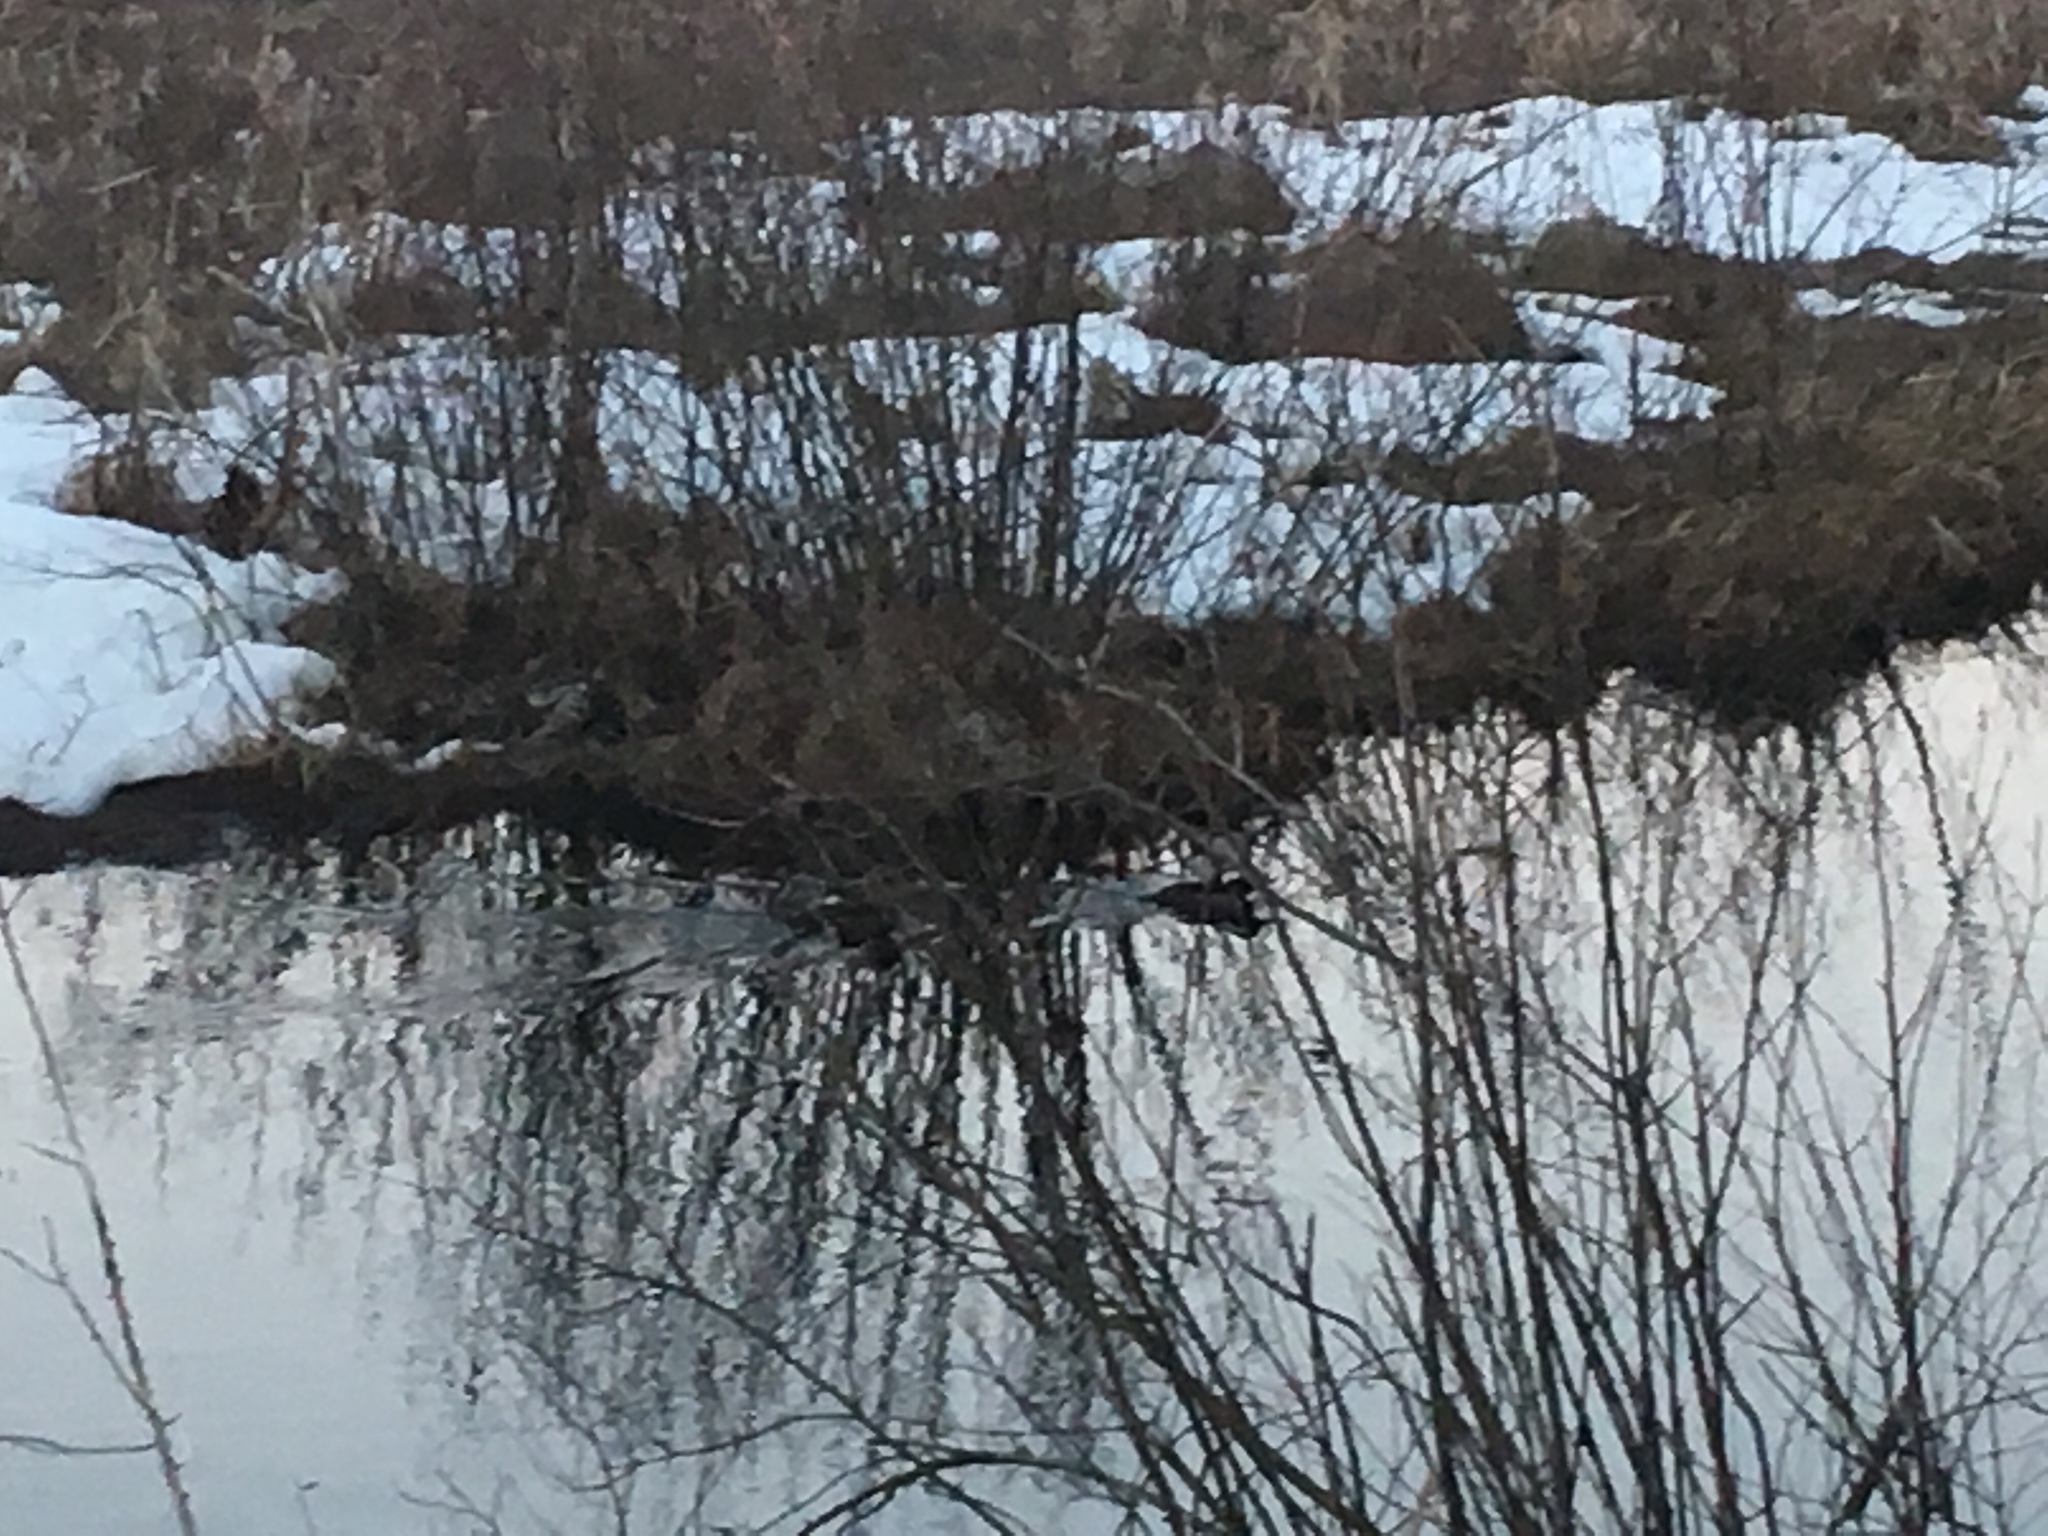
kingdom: Animalia
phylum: Chordata
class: Aves
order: Anseriformes
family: Anatidae
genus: Lophodytes
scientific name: Lophodytes cucullatus
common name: Hooded merganser
